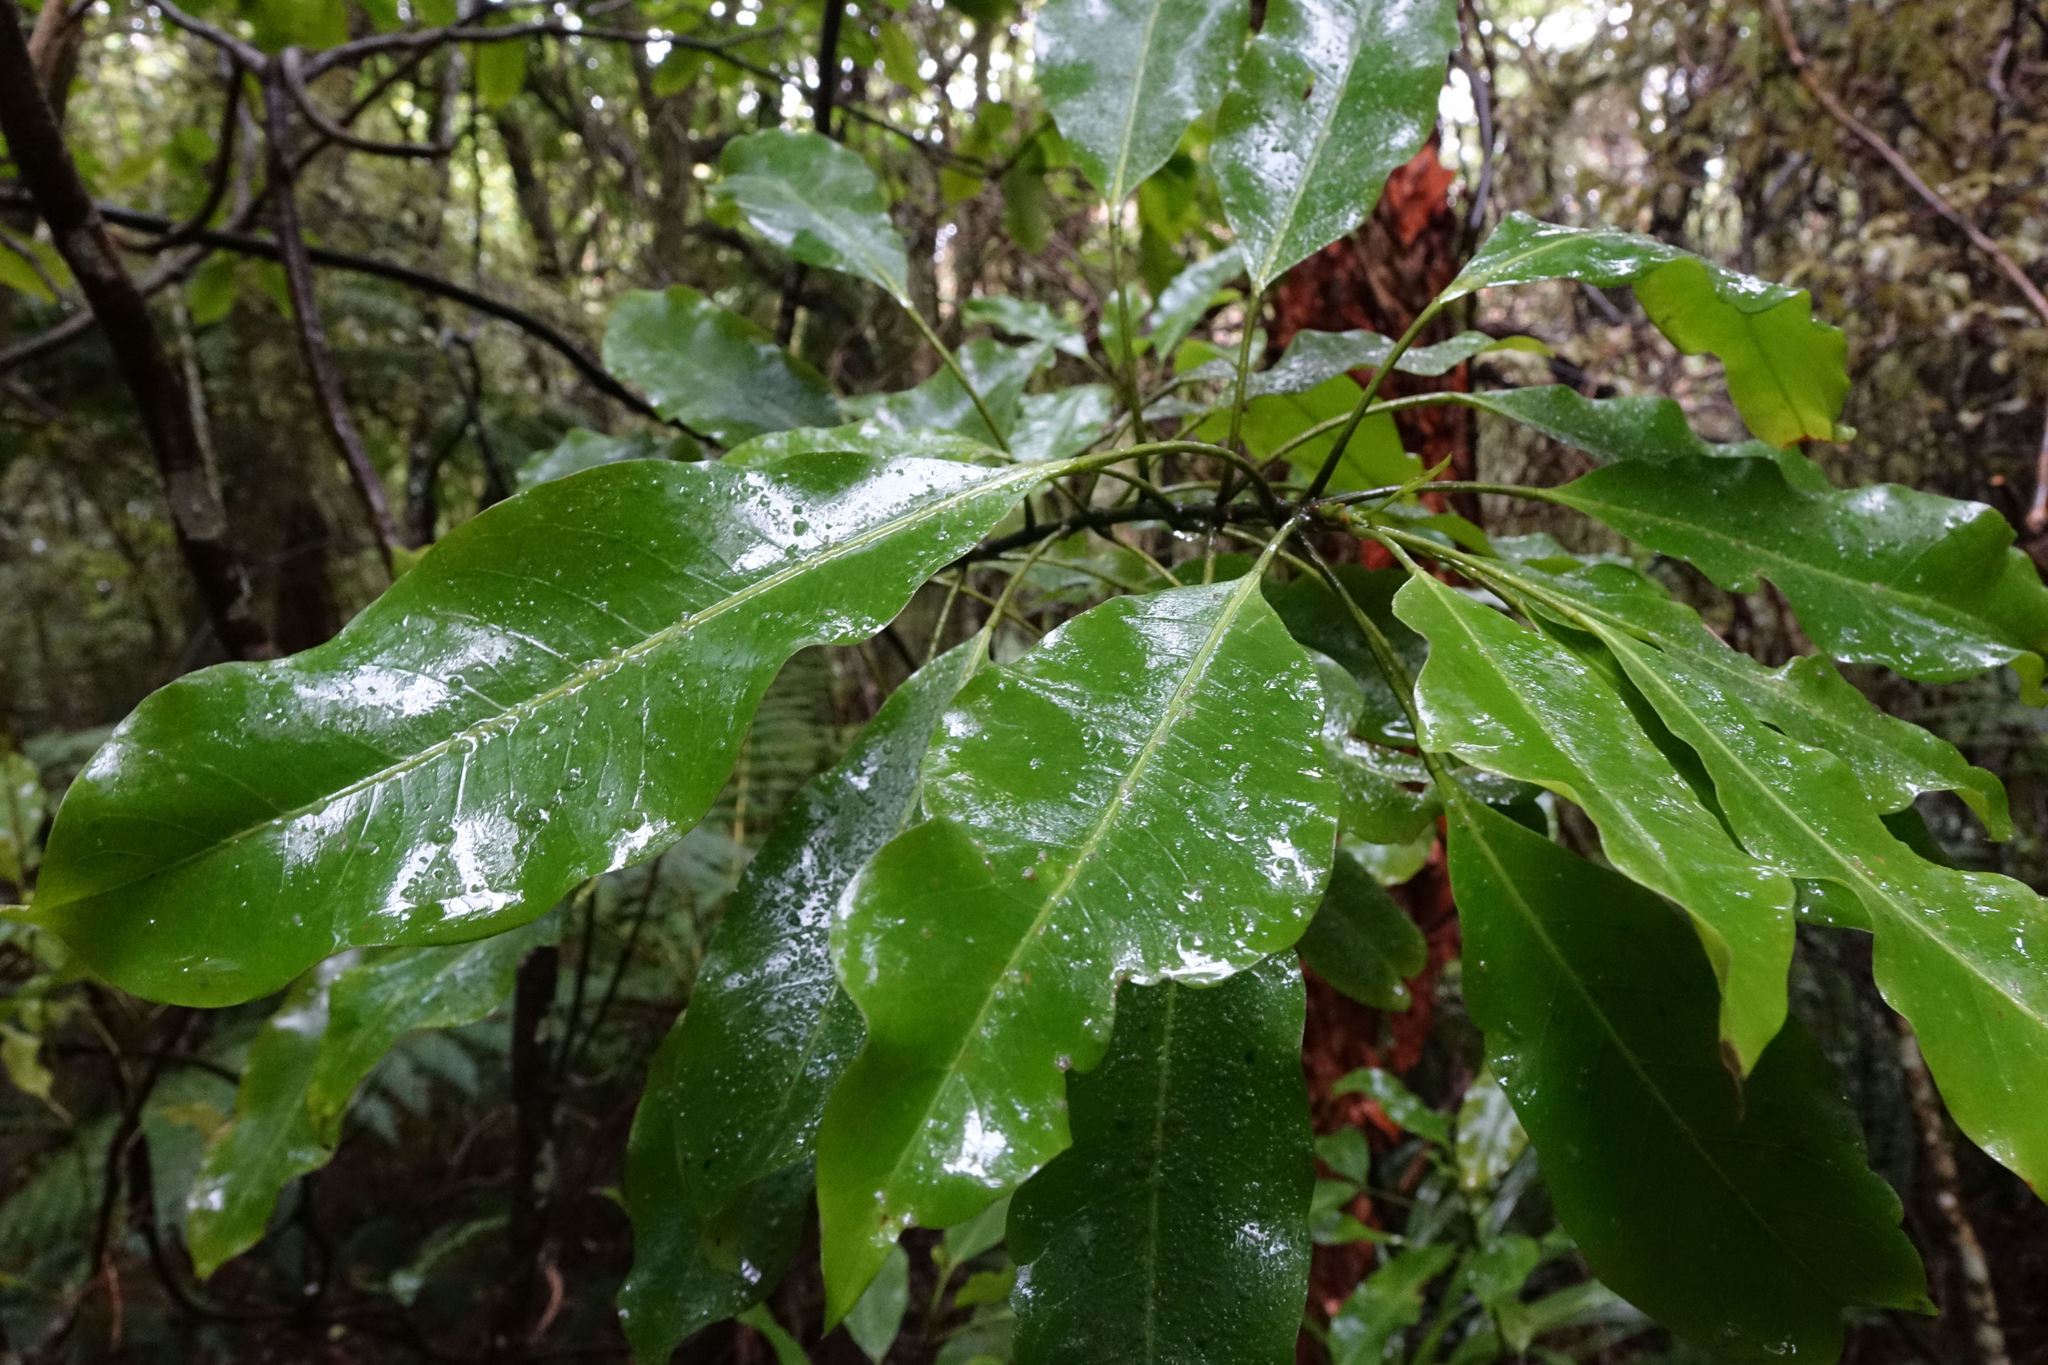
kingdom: Plantae
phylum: Tracheophyta
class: Magnoliopsida
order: Apiales
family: Araliaceae
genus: Raukaua
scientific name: Raukaua edgerleyi
